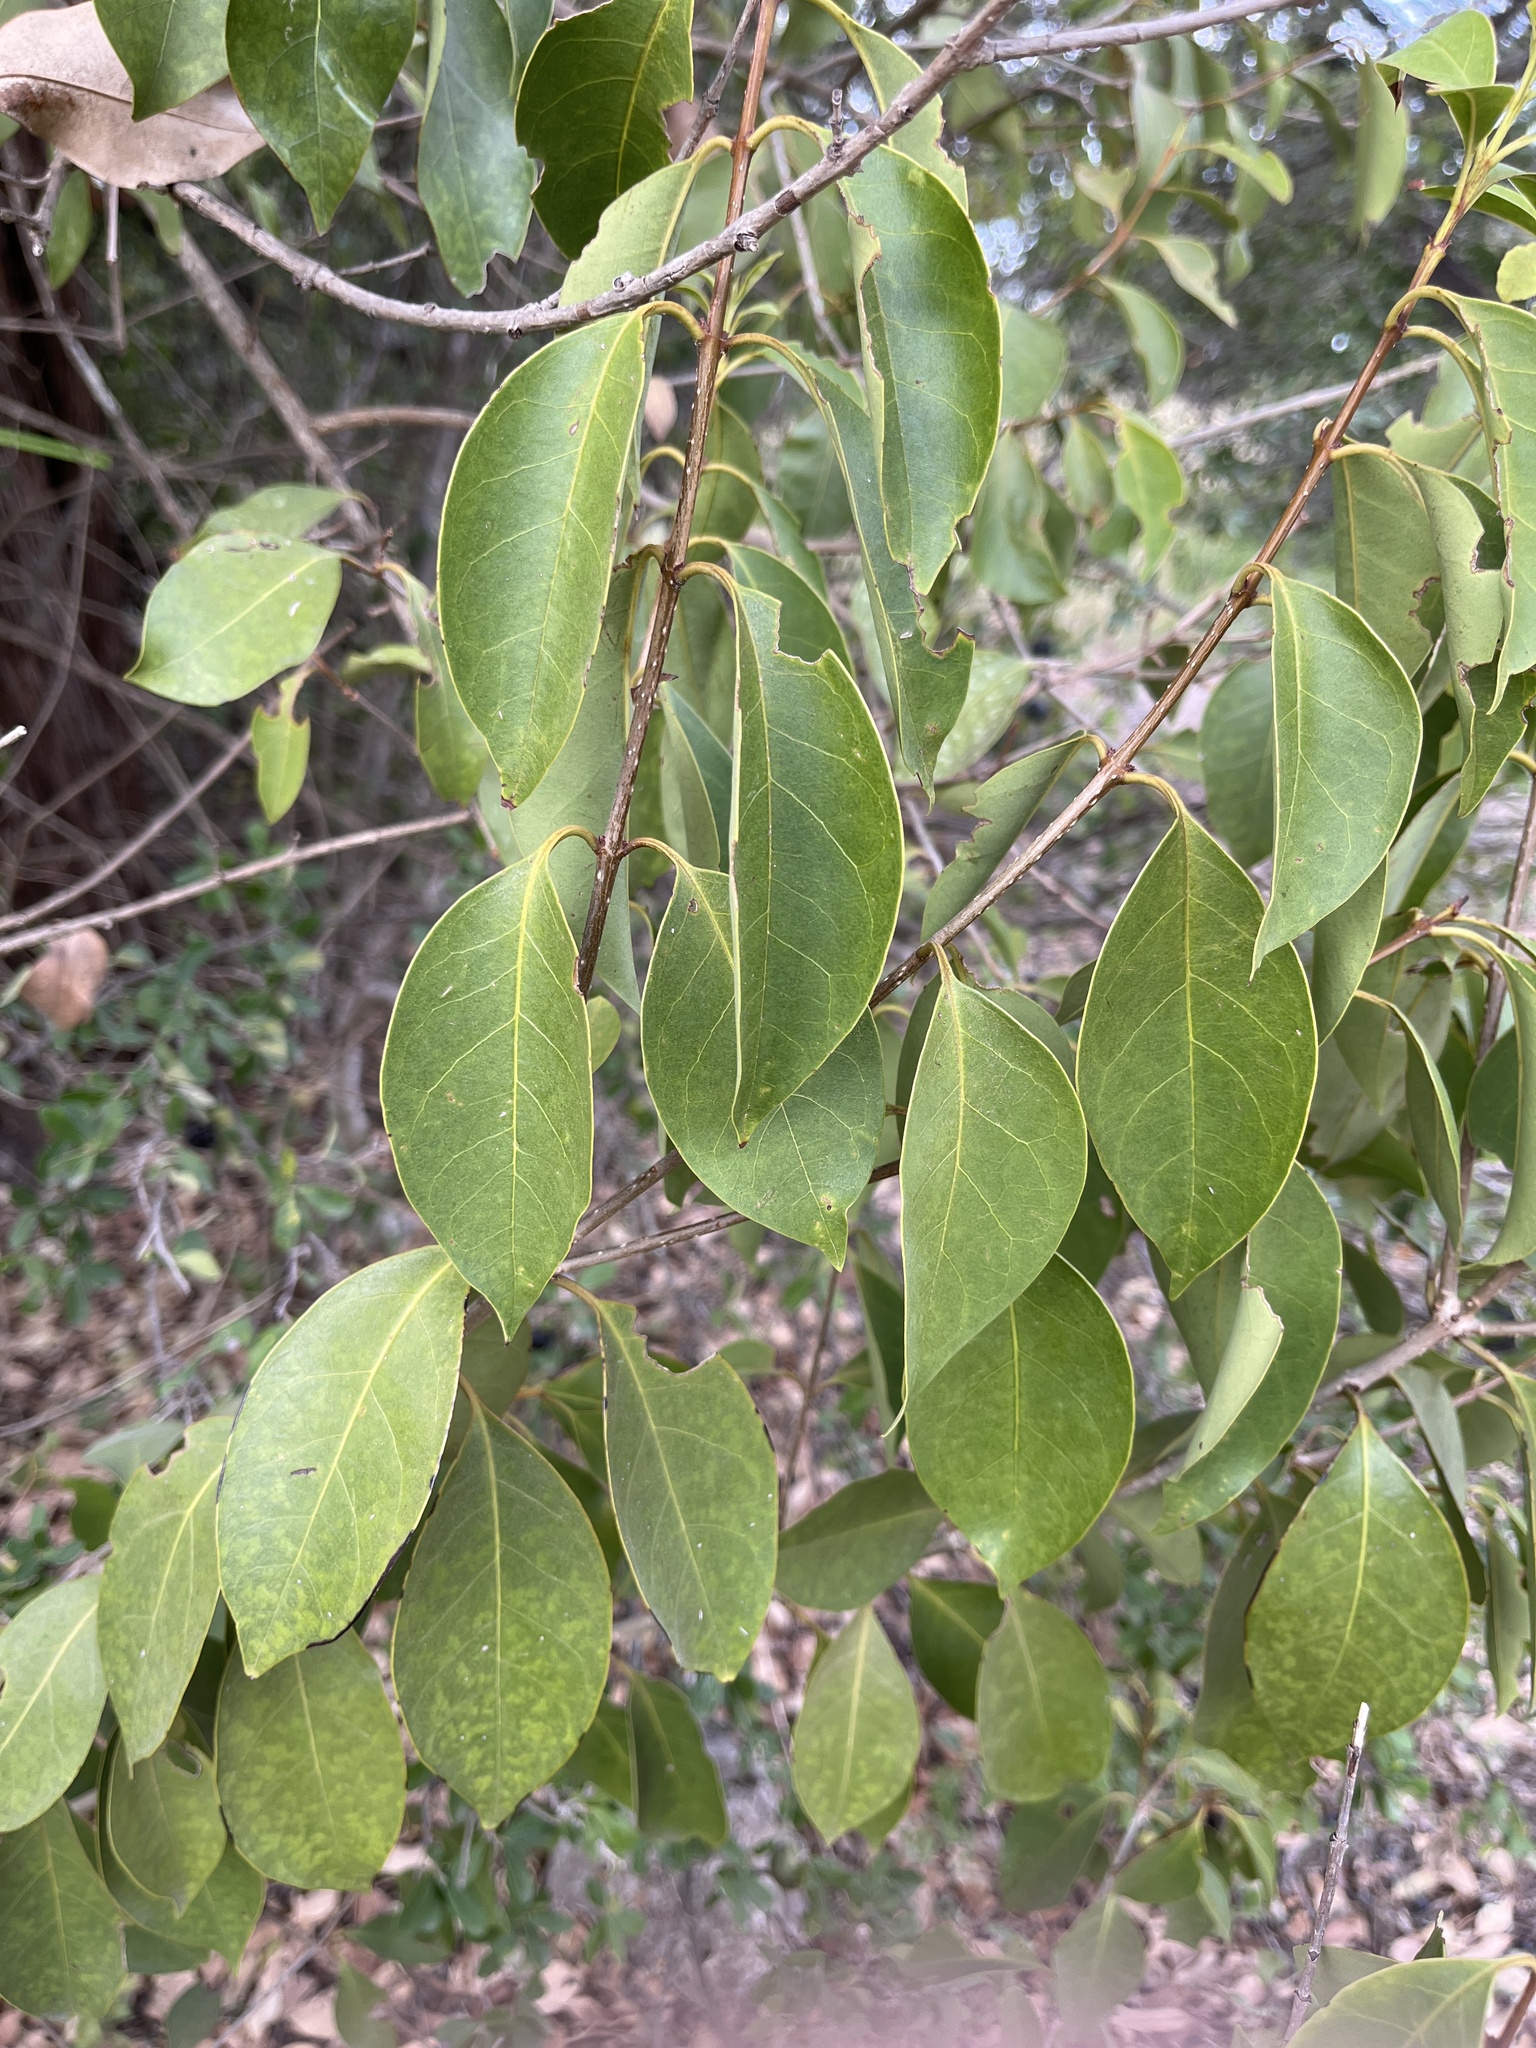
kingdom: Plantae
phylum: Tracheophyta
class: Magnoliopsida
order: Lamiales
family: Oleaceae
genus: Ligustrum
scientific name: Ligustrum lucidum
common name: Glossy privet
